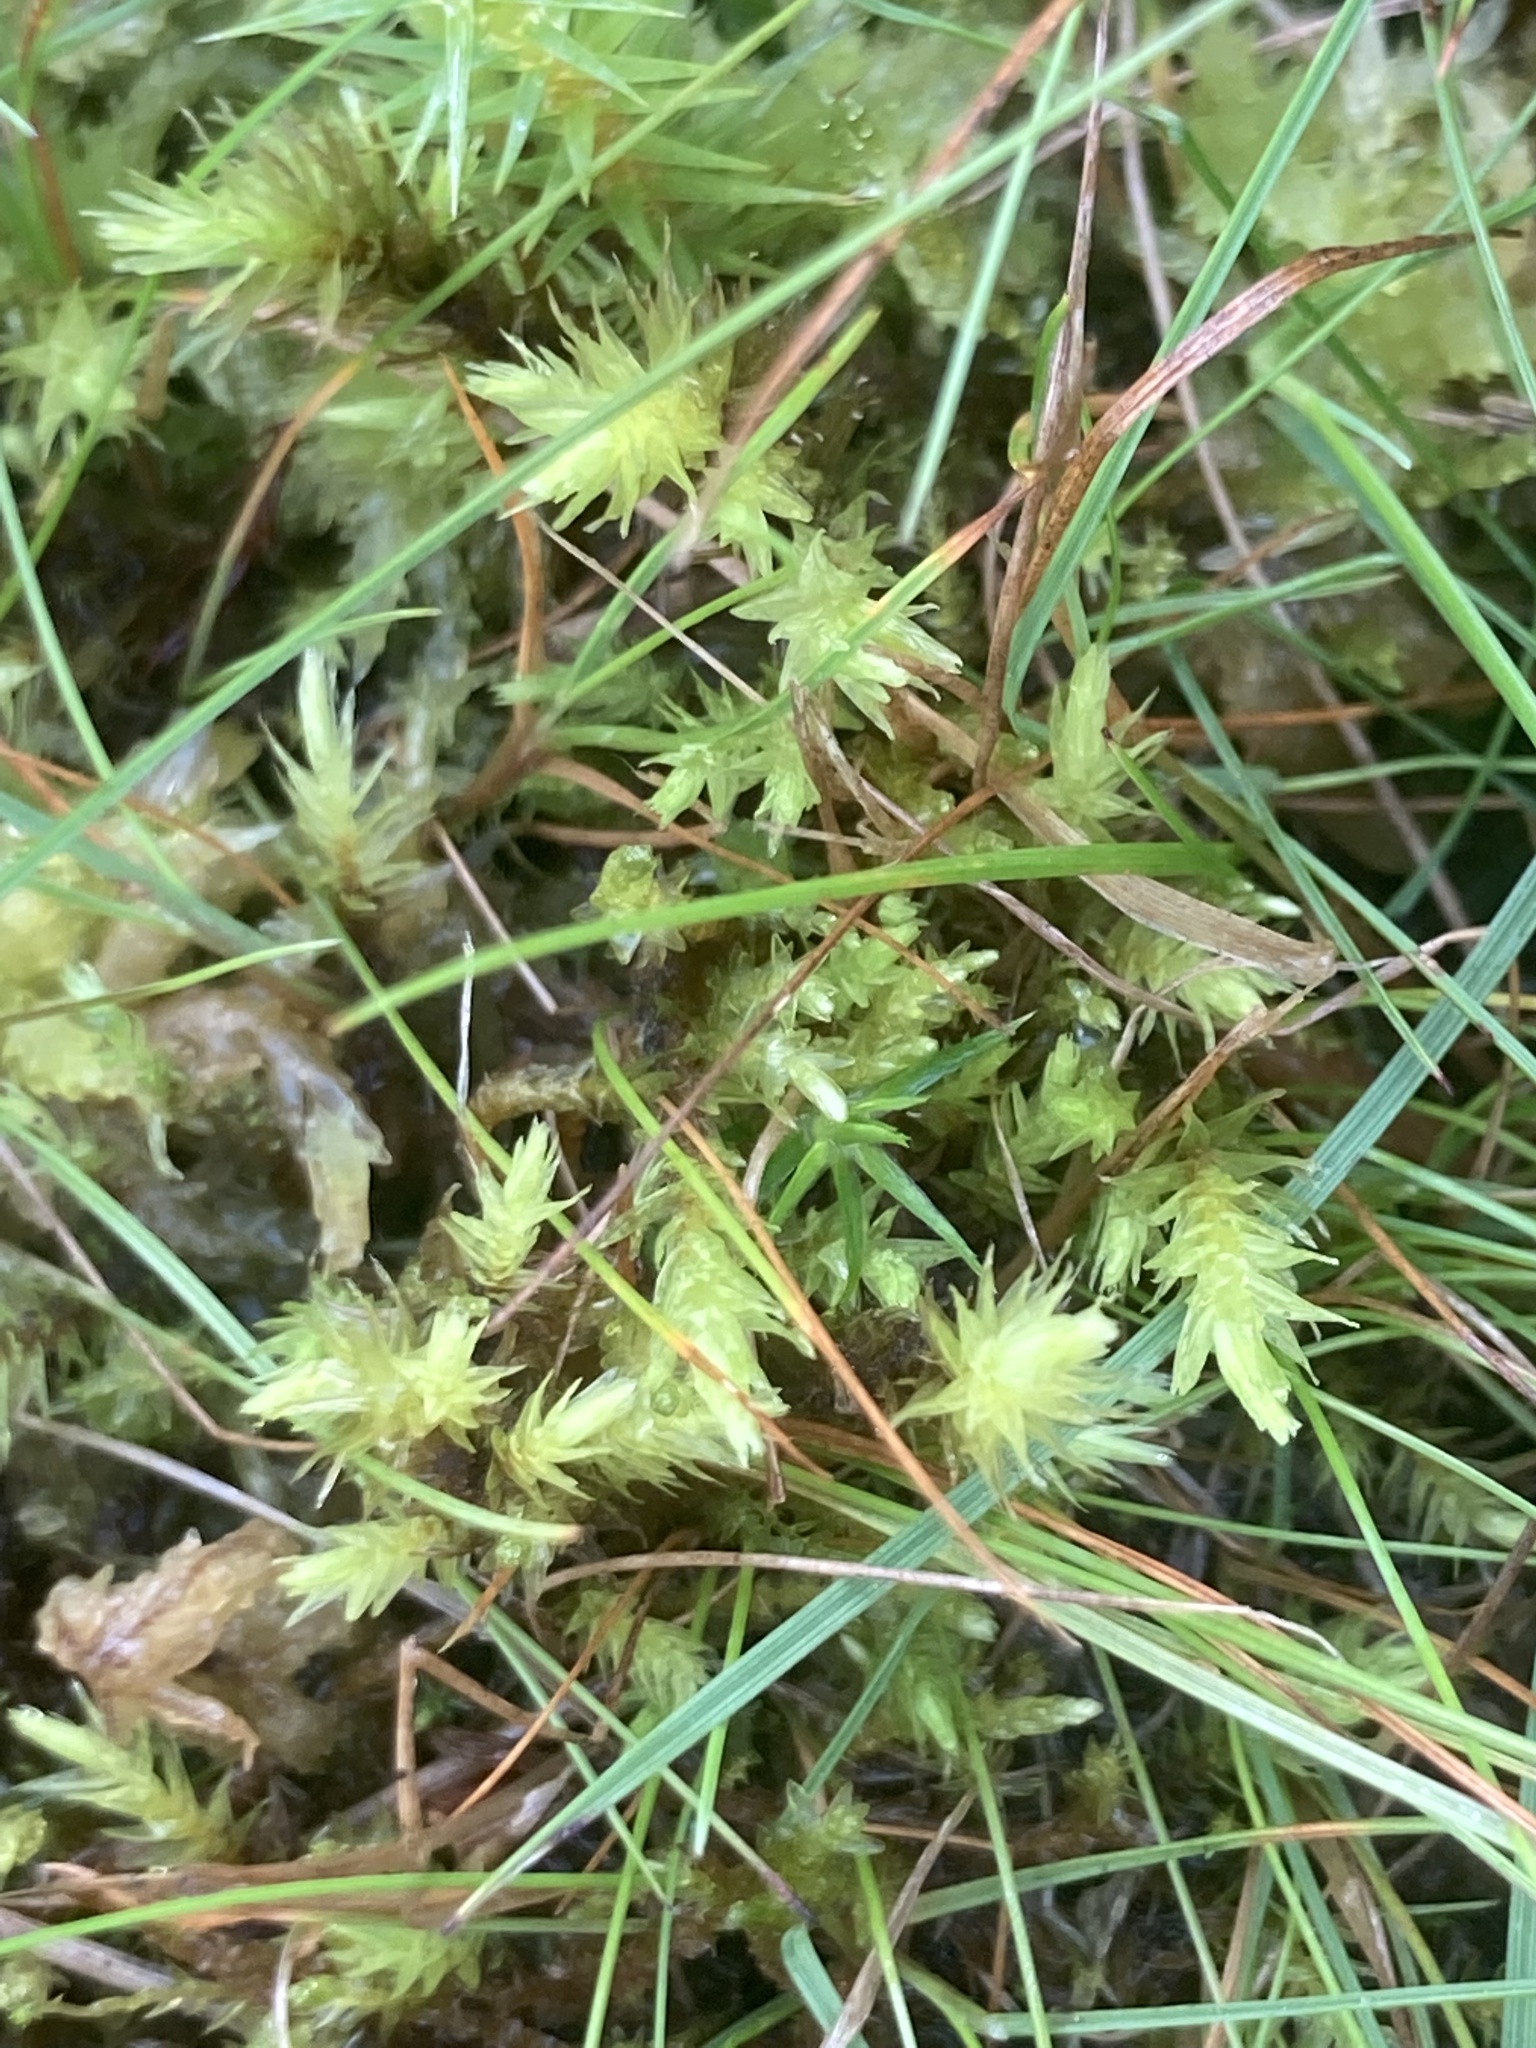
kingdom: Plantae
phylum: Bryophyta
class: Bryopsida
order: Aulacomniales
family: Aulacomniaceae
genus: Aulacomnium
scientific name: Aulacomnium palustre
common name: Bog groove-moss
